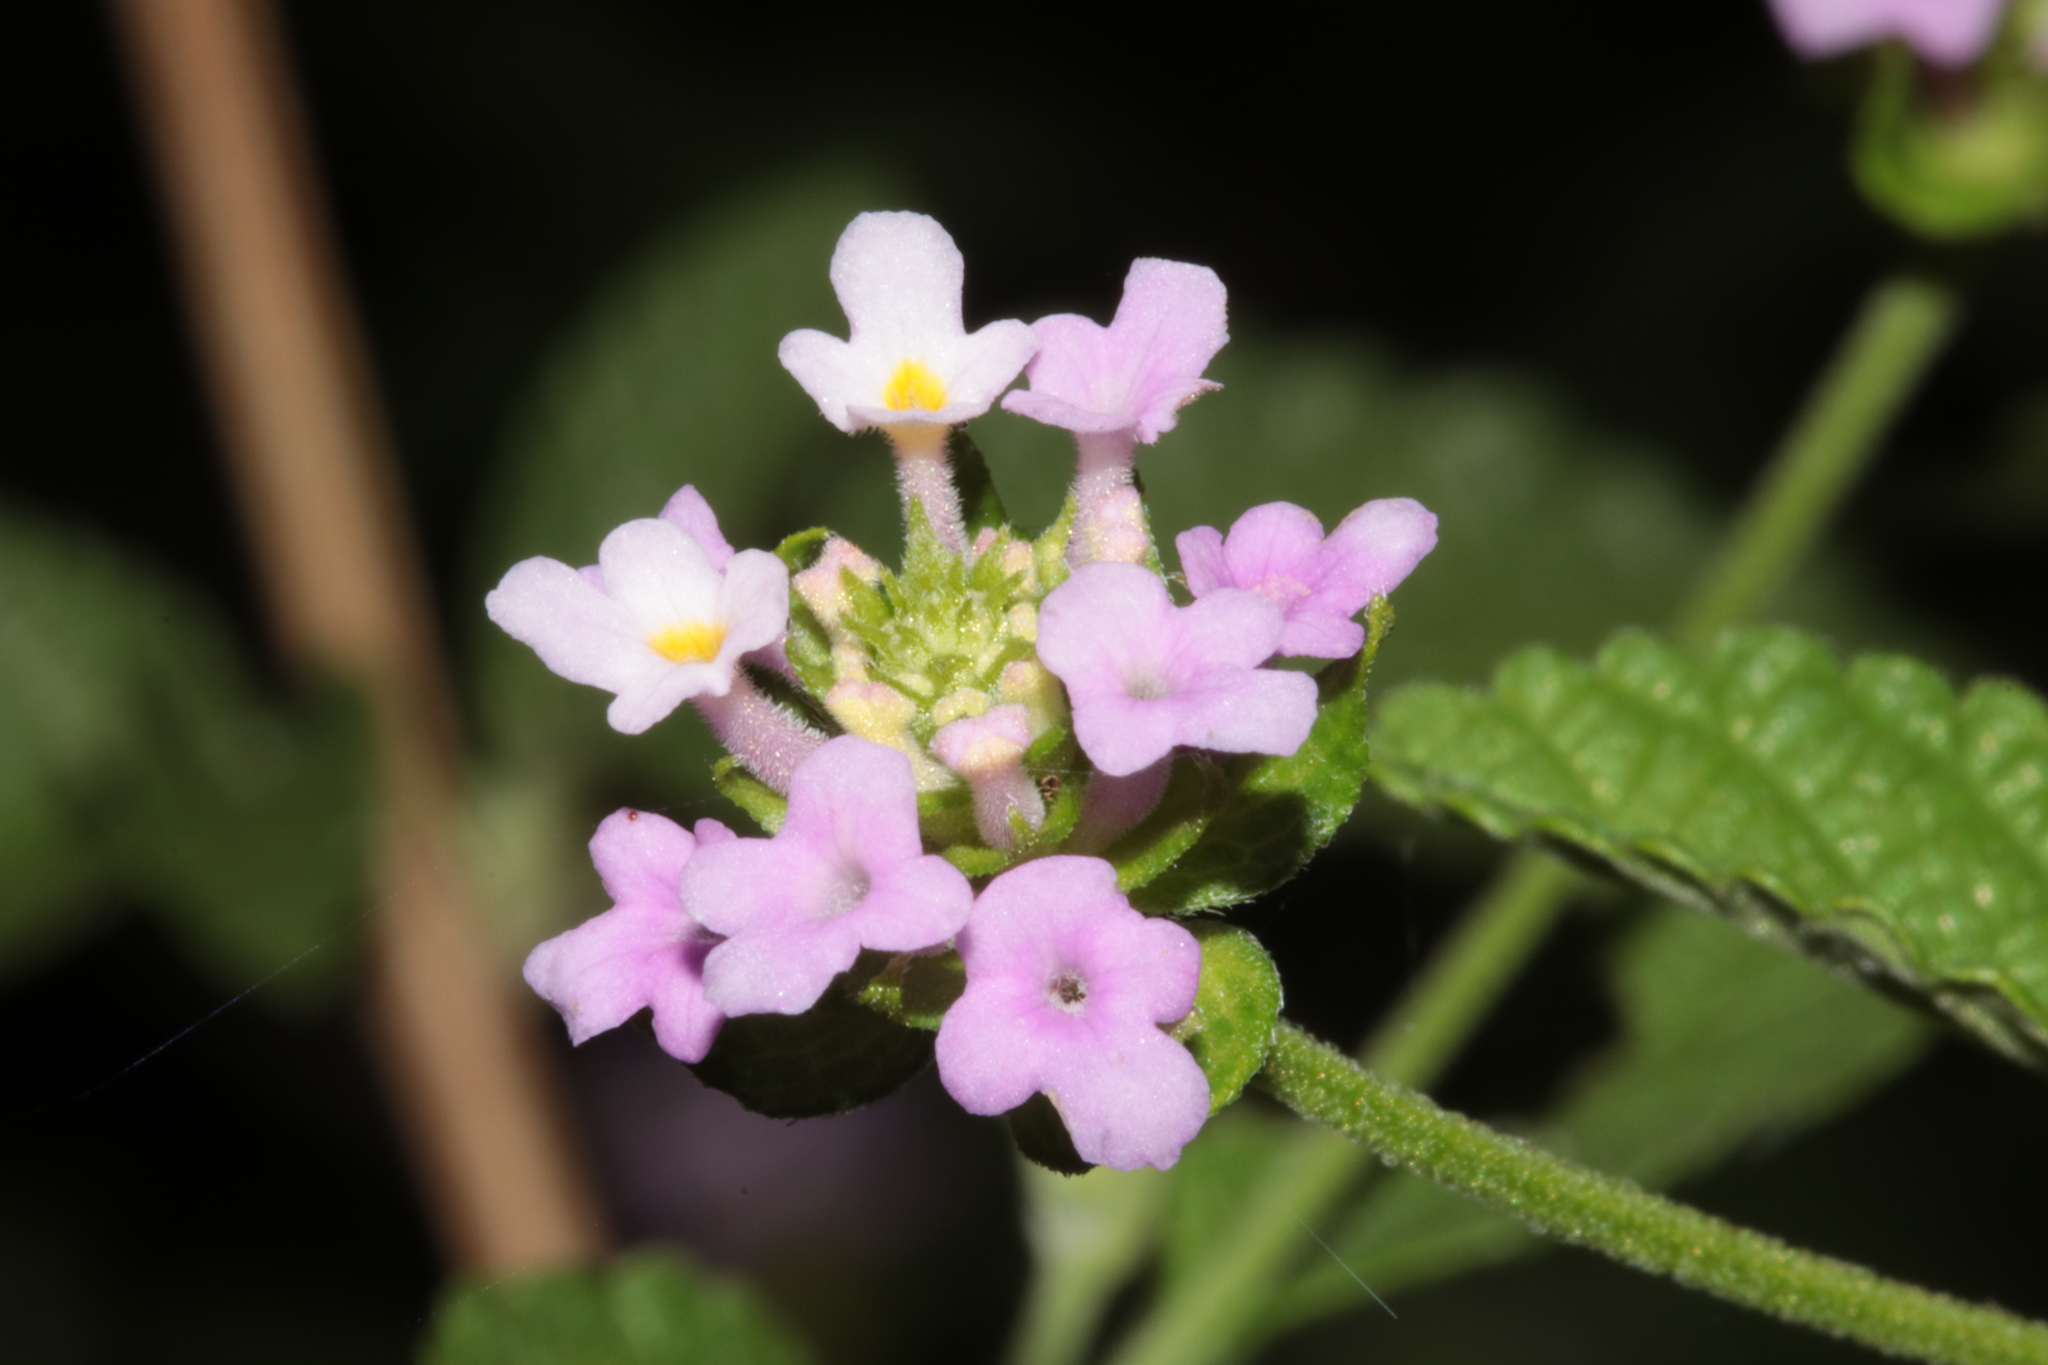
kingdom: Plantae
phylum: Tracheophyta
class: Magnoliopsida
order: Lamiales
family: Verbenaceae
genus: Lantana
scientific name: Lantana rugosa
